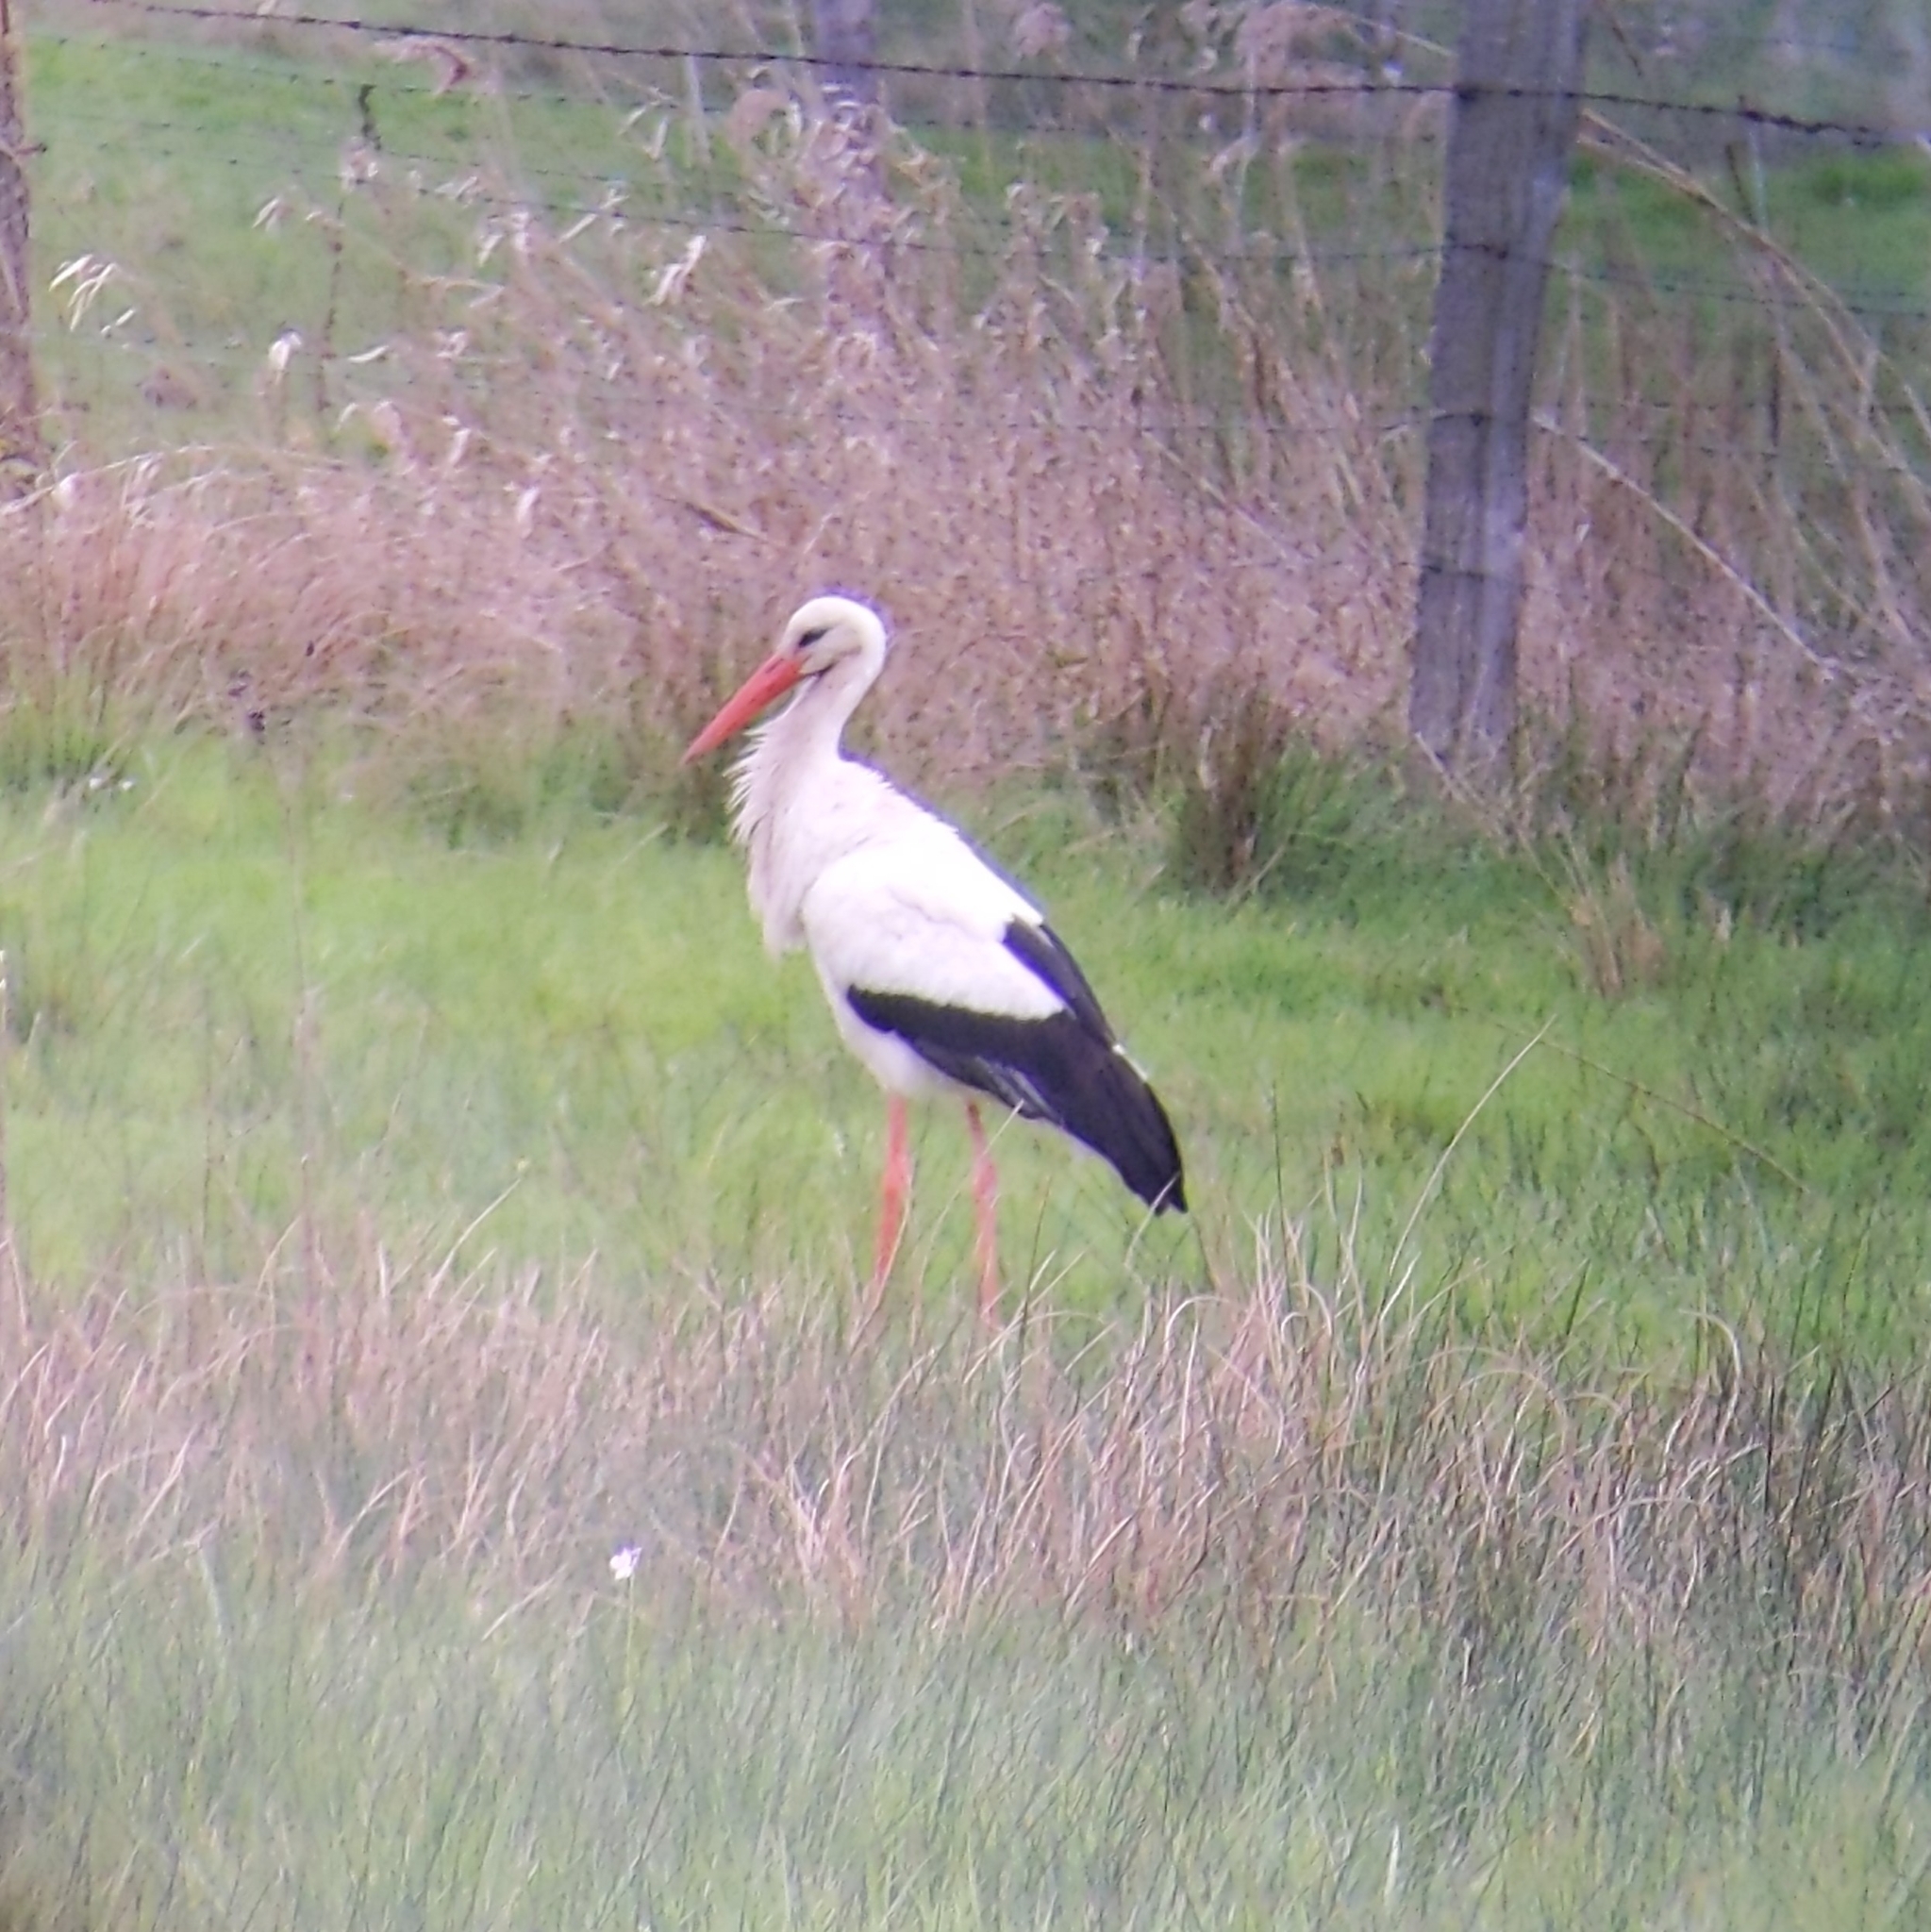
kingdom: Animalia
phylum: Chordata
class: Aves
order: Ciconiiformes
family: Ciconiidae
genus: Ciconia
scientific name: Ciconia ciconia
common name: White stork
